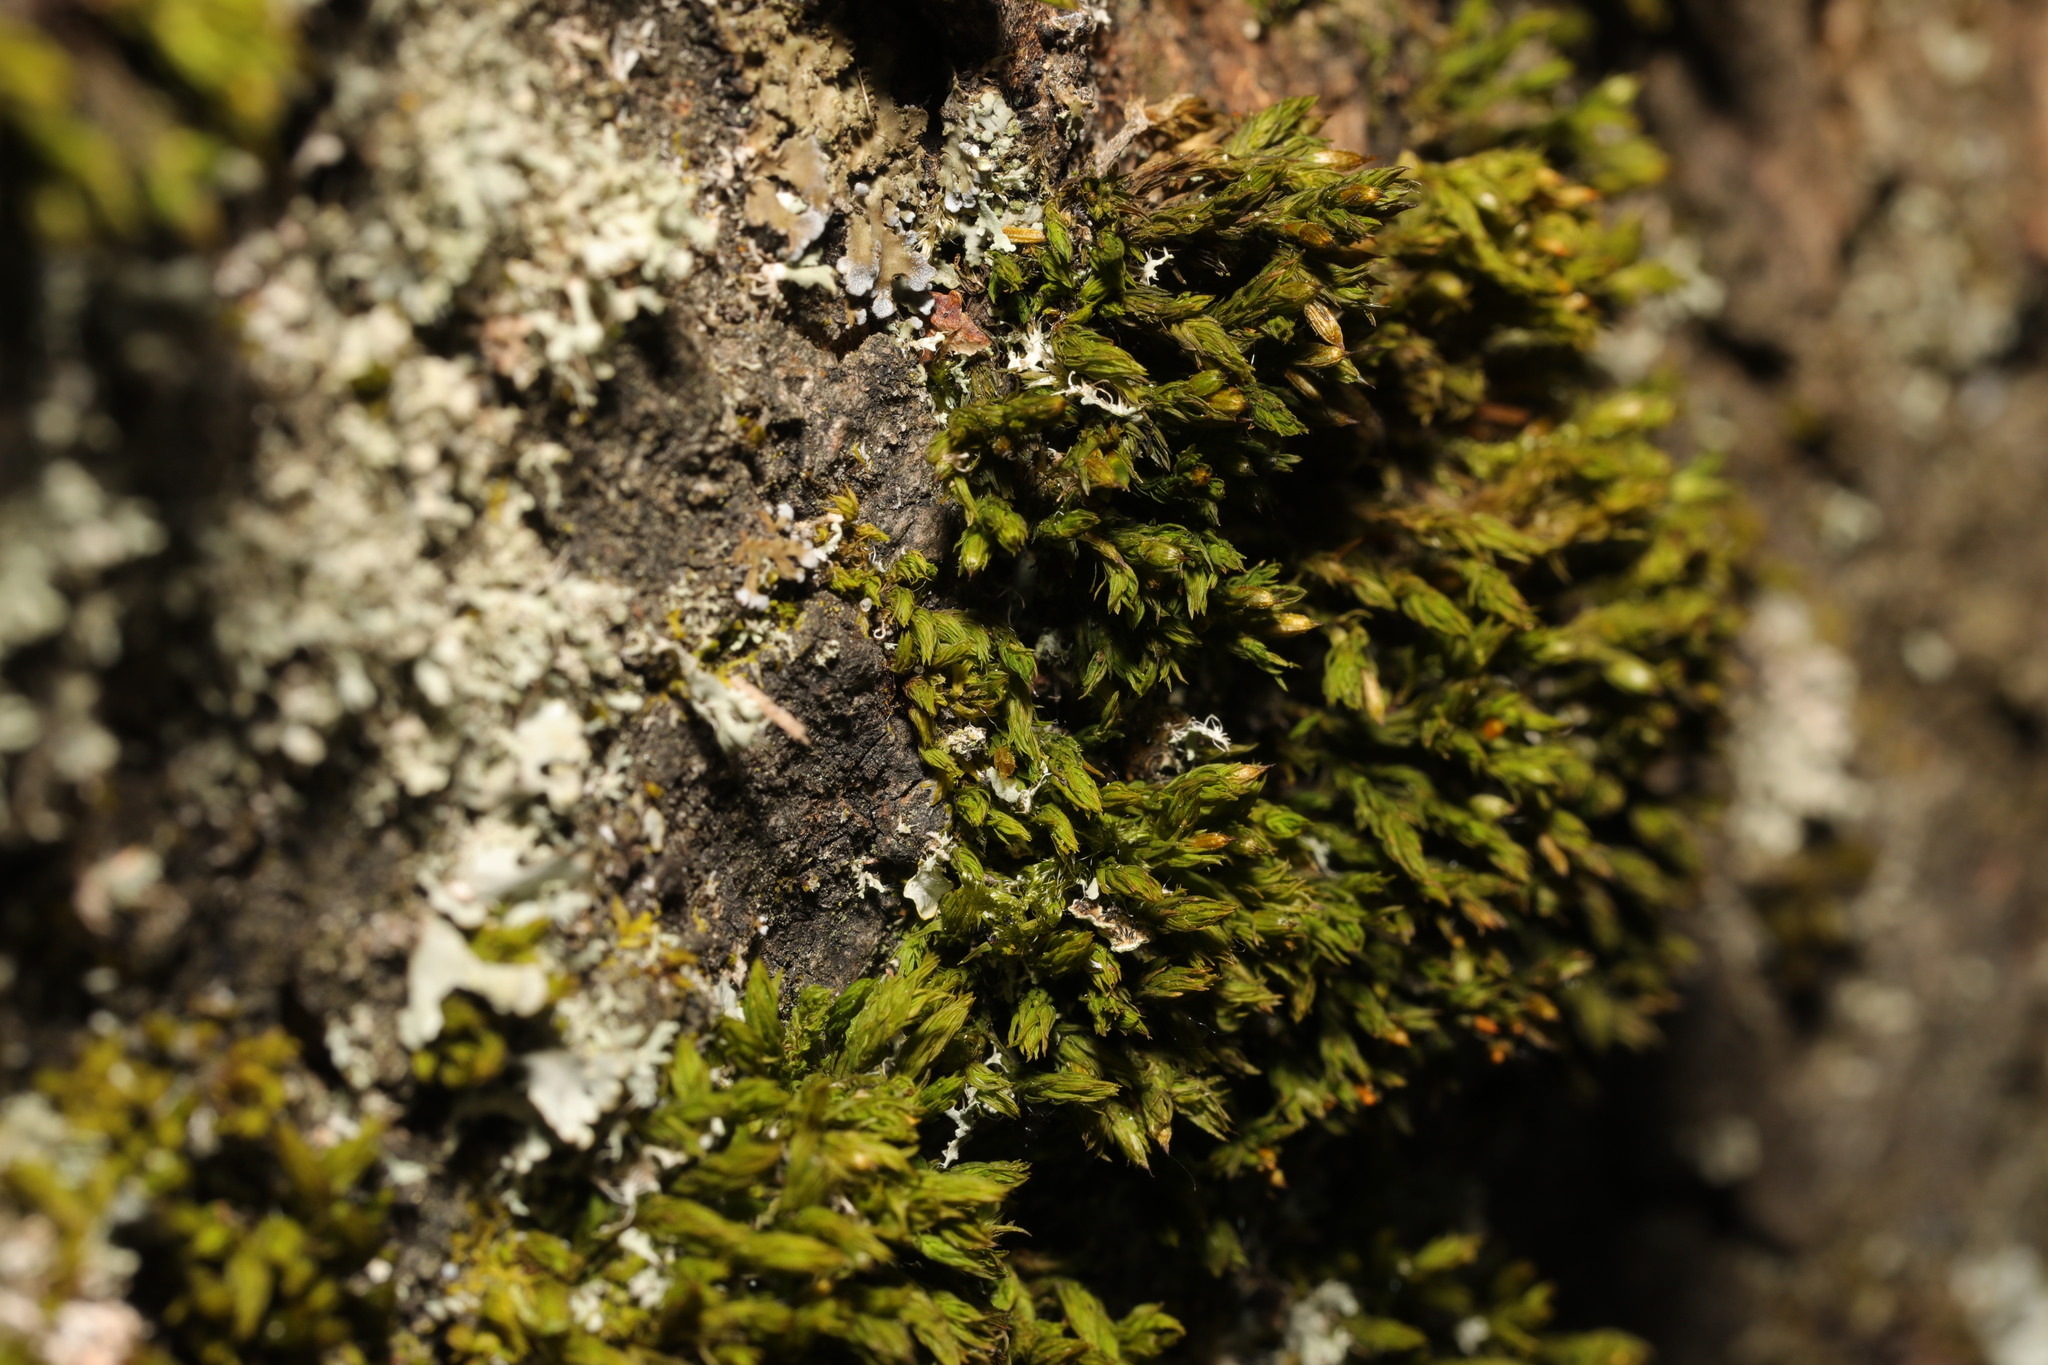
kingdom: Plantae
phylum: Bryophyta
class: Bryopsida
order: Orthotrichales
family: Orthotrichaceae
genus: Lewinskya
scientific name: Lewinskya affinis
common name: Wood bristle-moss
